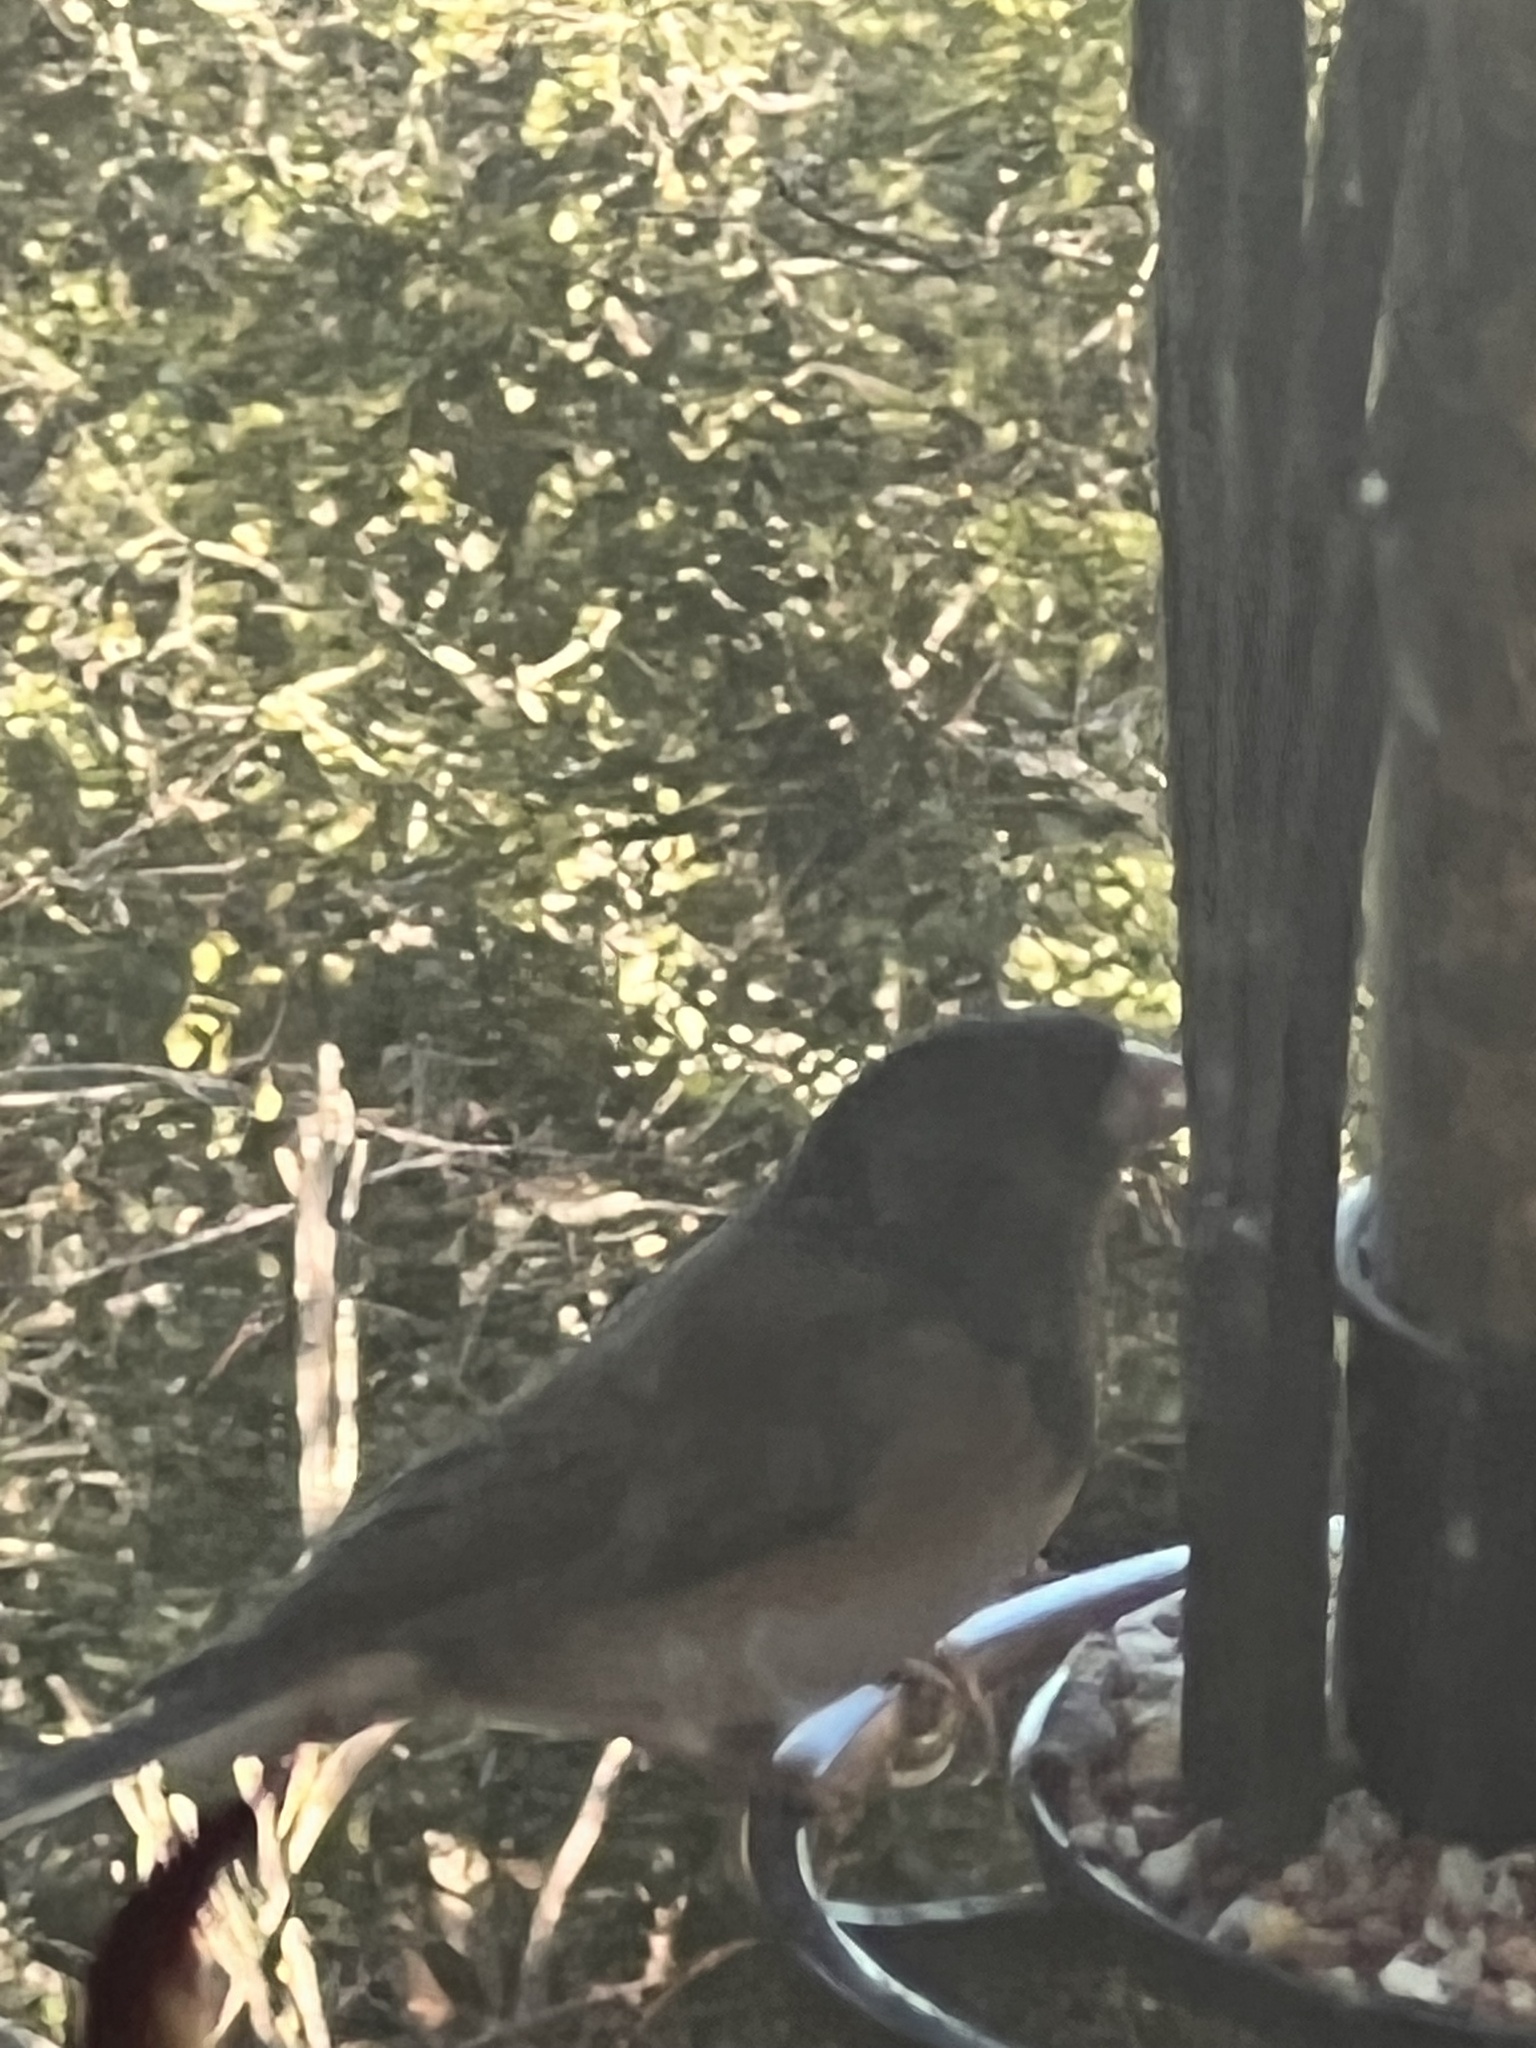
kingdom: Animalia
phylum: Chordata
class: Aves
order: Passeriformes
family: Passerellidae
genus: Junco
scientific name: Junco hyemalis
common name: Dark-eyed junco
